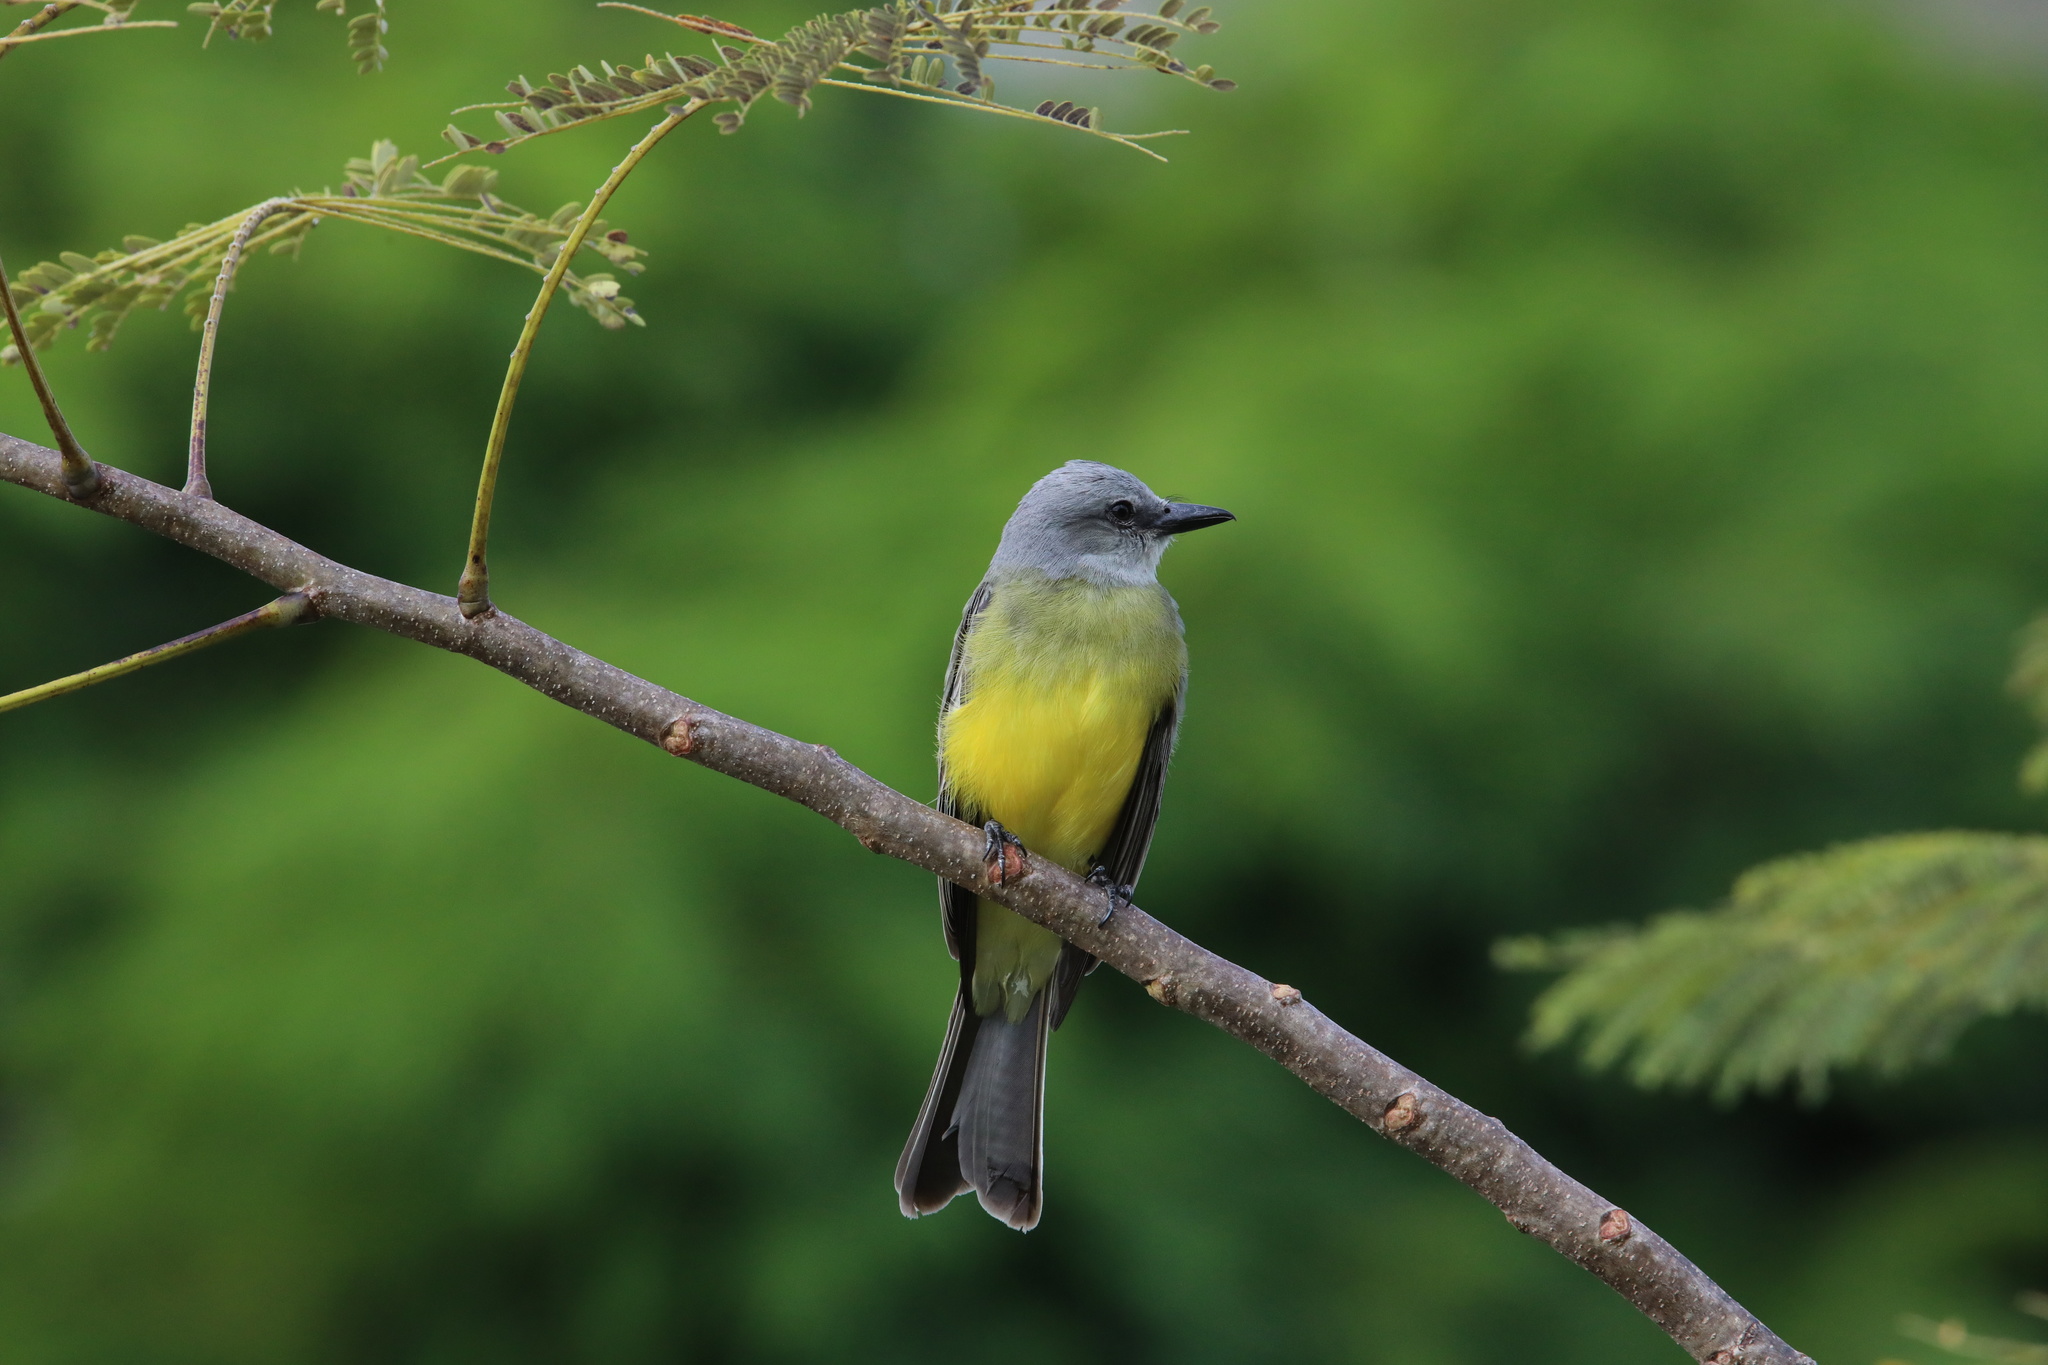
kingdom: Animalia
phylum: Chordata
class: Aves
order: Passeriformes
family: Tyrannidae
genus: Tyrannus
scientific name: Tyrannus melancholicus
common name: Tropical kingbird
